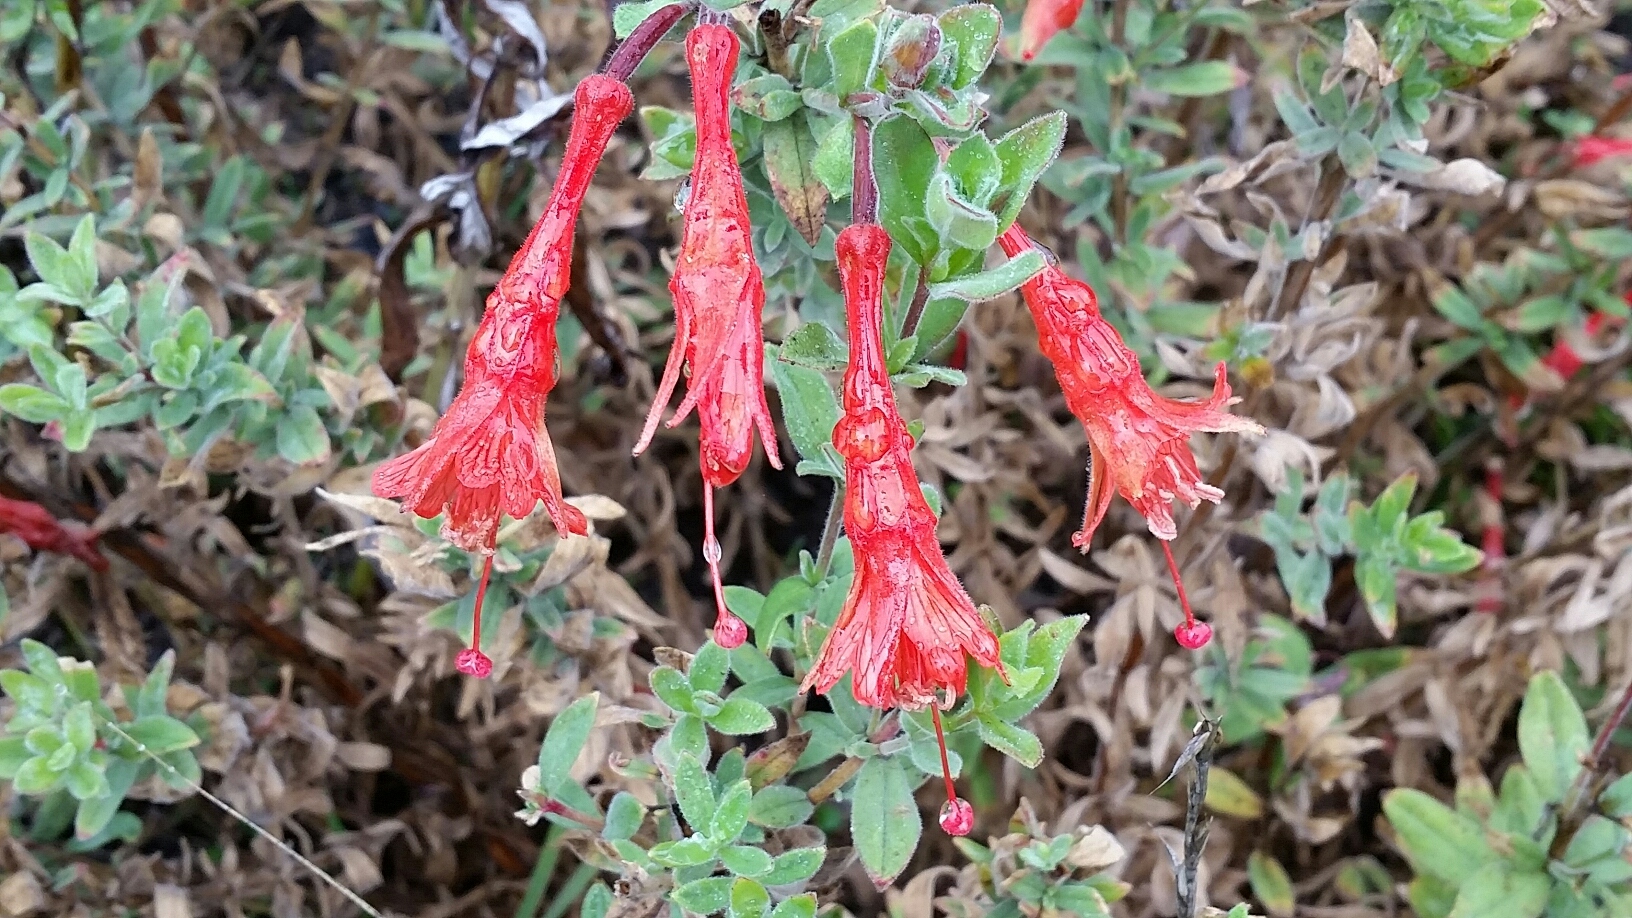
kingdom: Plantae
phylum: Tracheophyta
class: Magnoliopsida
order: Myrtales
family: Onagraceae
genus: Epilobium
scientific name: Epilobium canum
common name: California-fuchsia
